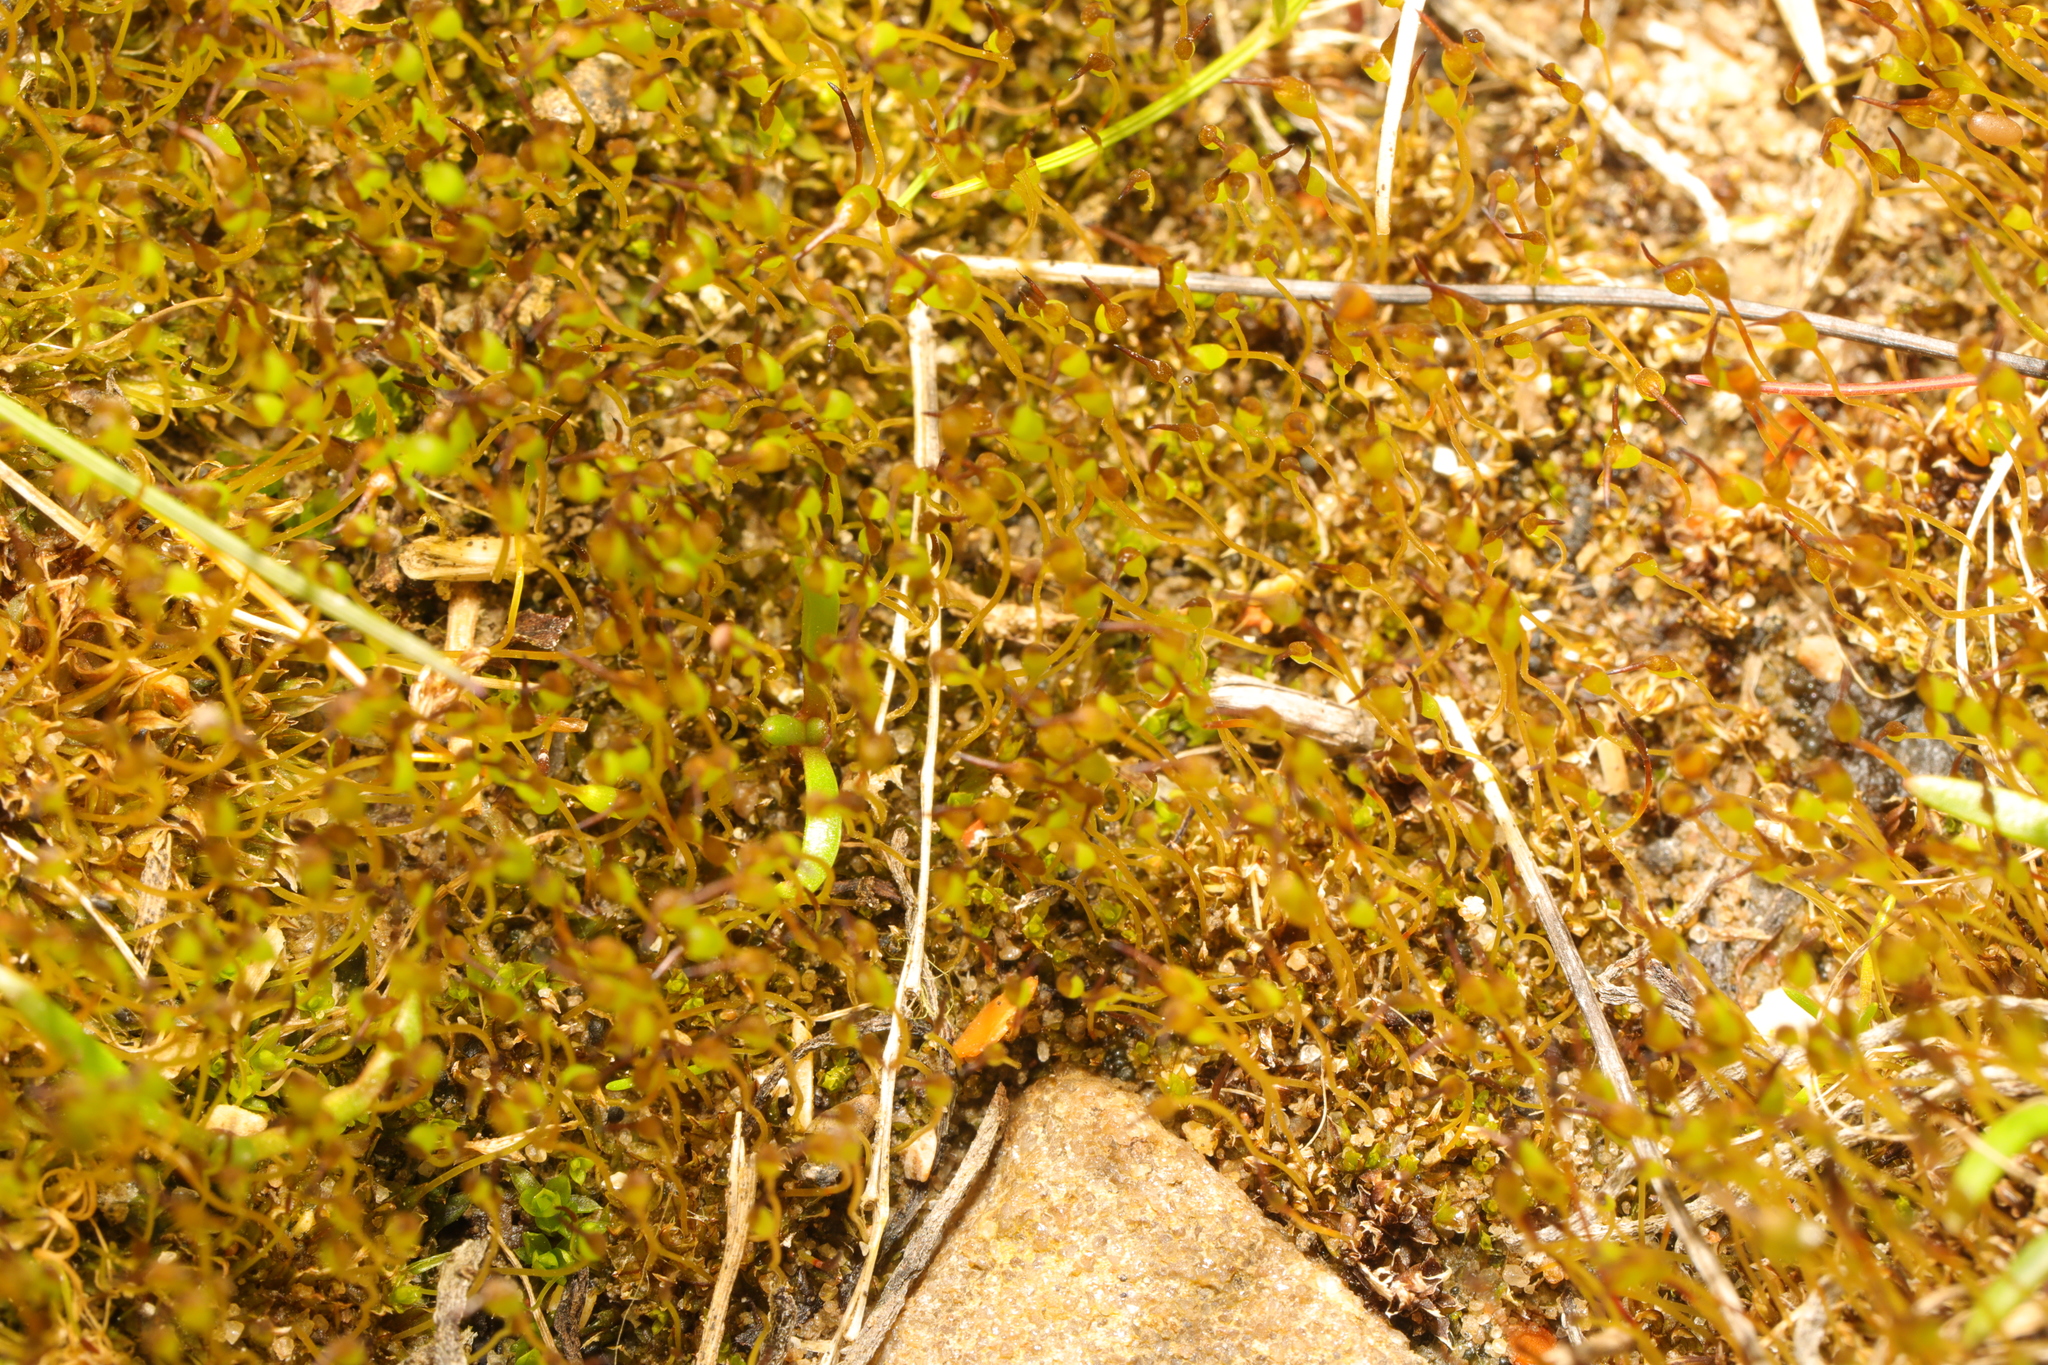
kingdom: Plantae
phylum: Bryophyta
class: Bryopsida
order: Funariales
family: Funariaceae
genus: Funaria
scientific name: Funaria hygrometrica
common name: Common cord moss
